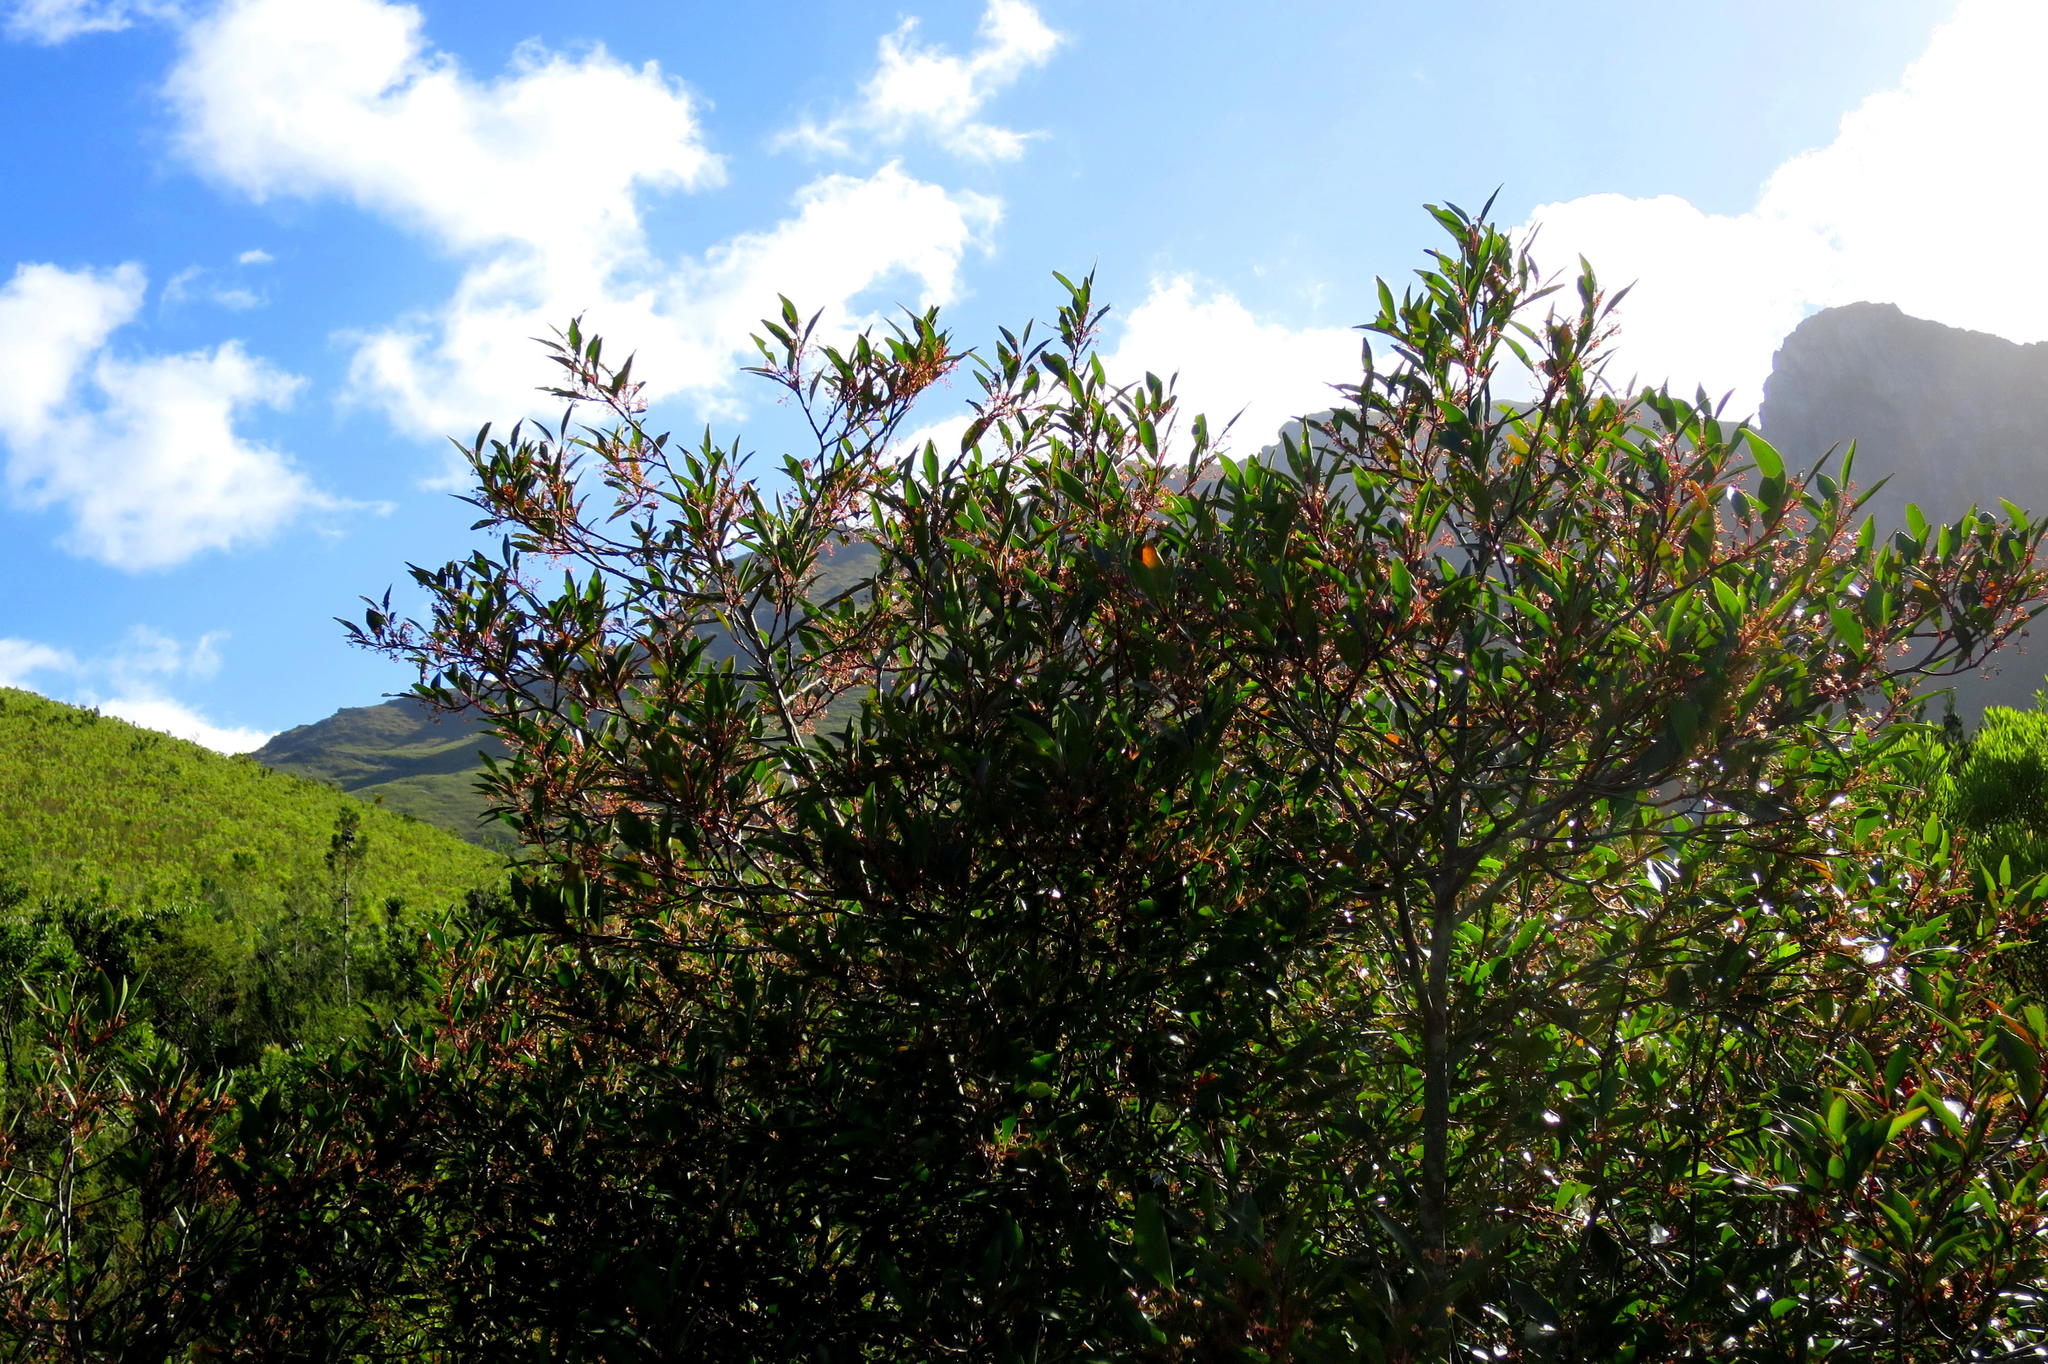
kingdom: Plantae
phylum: Tracheophyta
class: Magnoliopsida
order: Celastrales
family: Celastraceae
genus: Pterocelastrus
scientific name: Pterocelastrus rostratus
